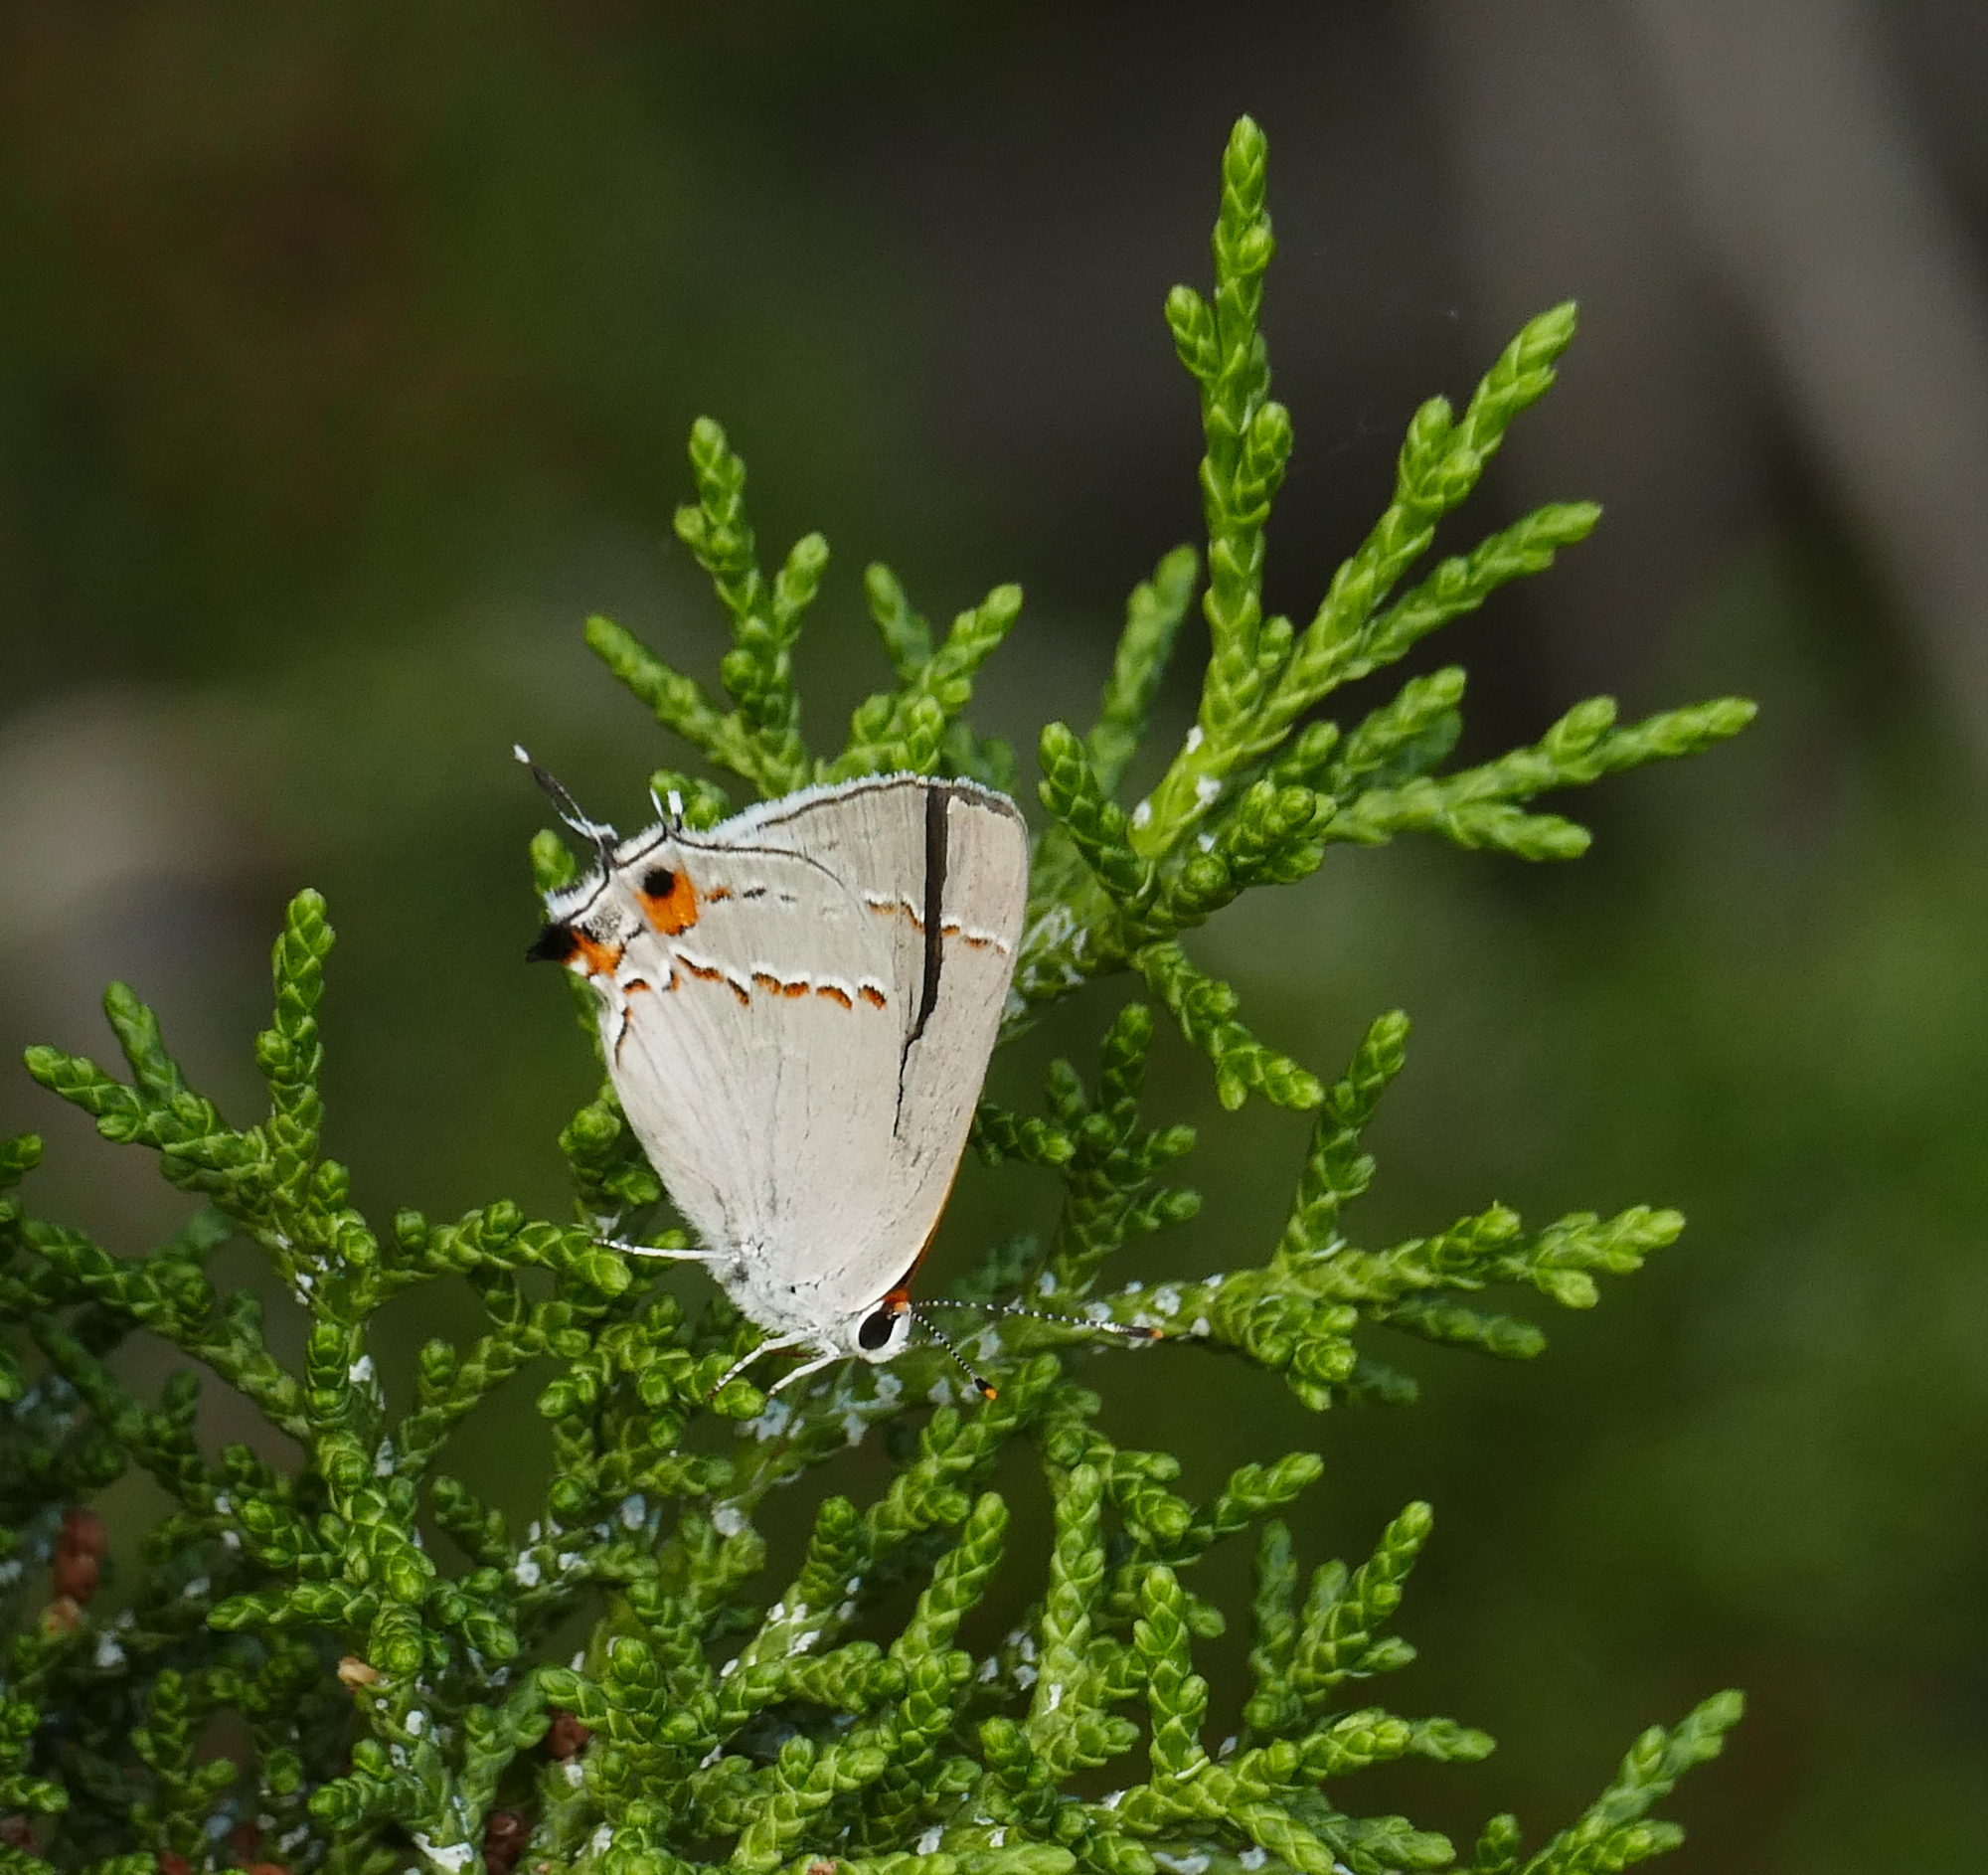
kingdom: Animalia
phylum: Arthropoda
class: Insecta
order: Lepidoptera
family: Lycaenidae
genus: Strymon
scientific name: Strymon melinus
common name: Gray hairstreak
